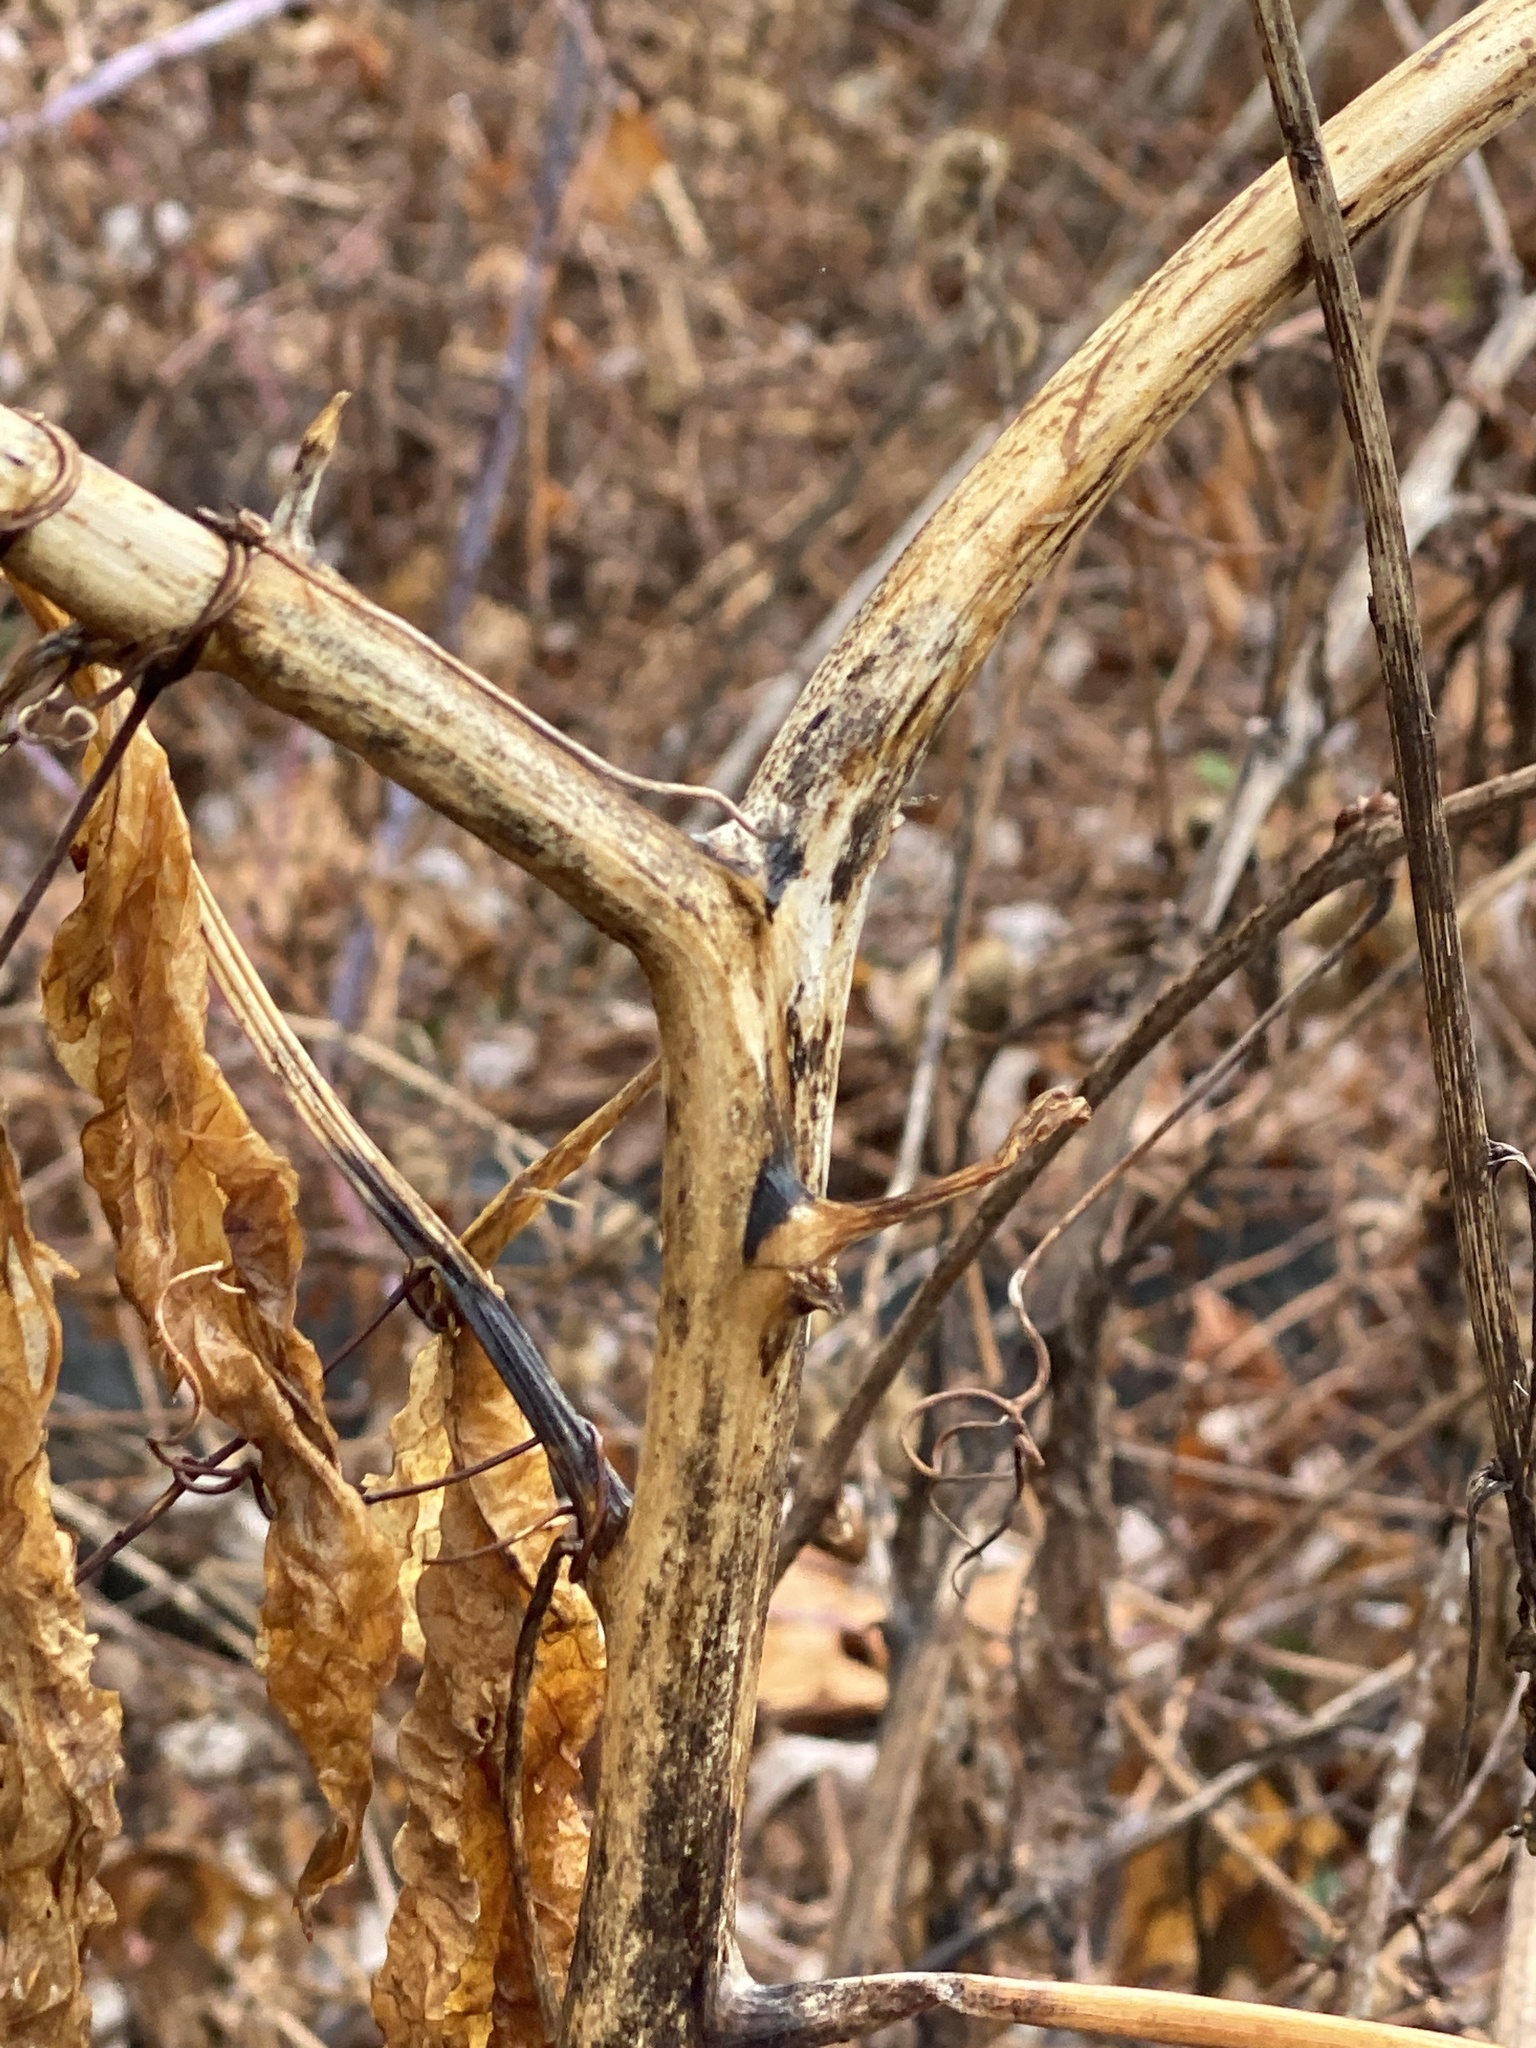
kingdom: Plantae
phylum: Tracheophyta
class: Magnoliopsida
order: Caryophyllales
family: Phytolaccaceae
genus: Phytolacca
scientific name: Phytolacca americana
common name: American pokeweed
